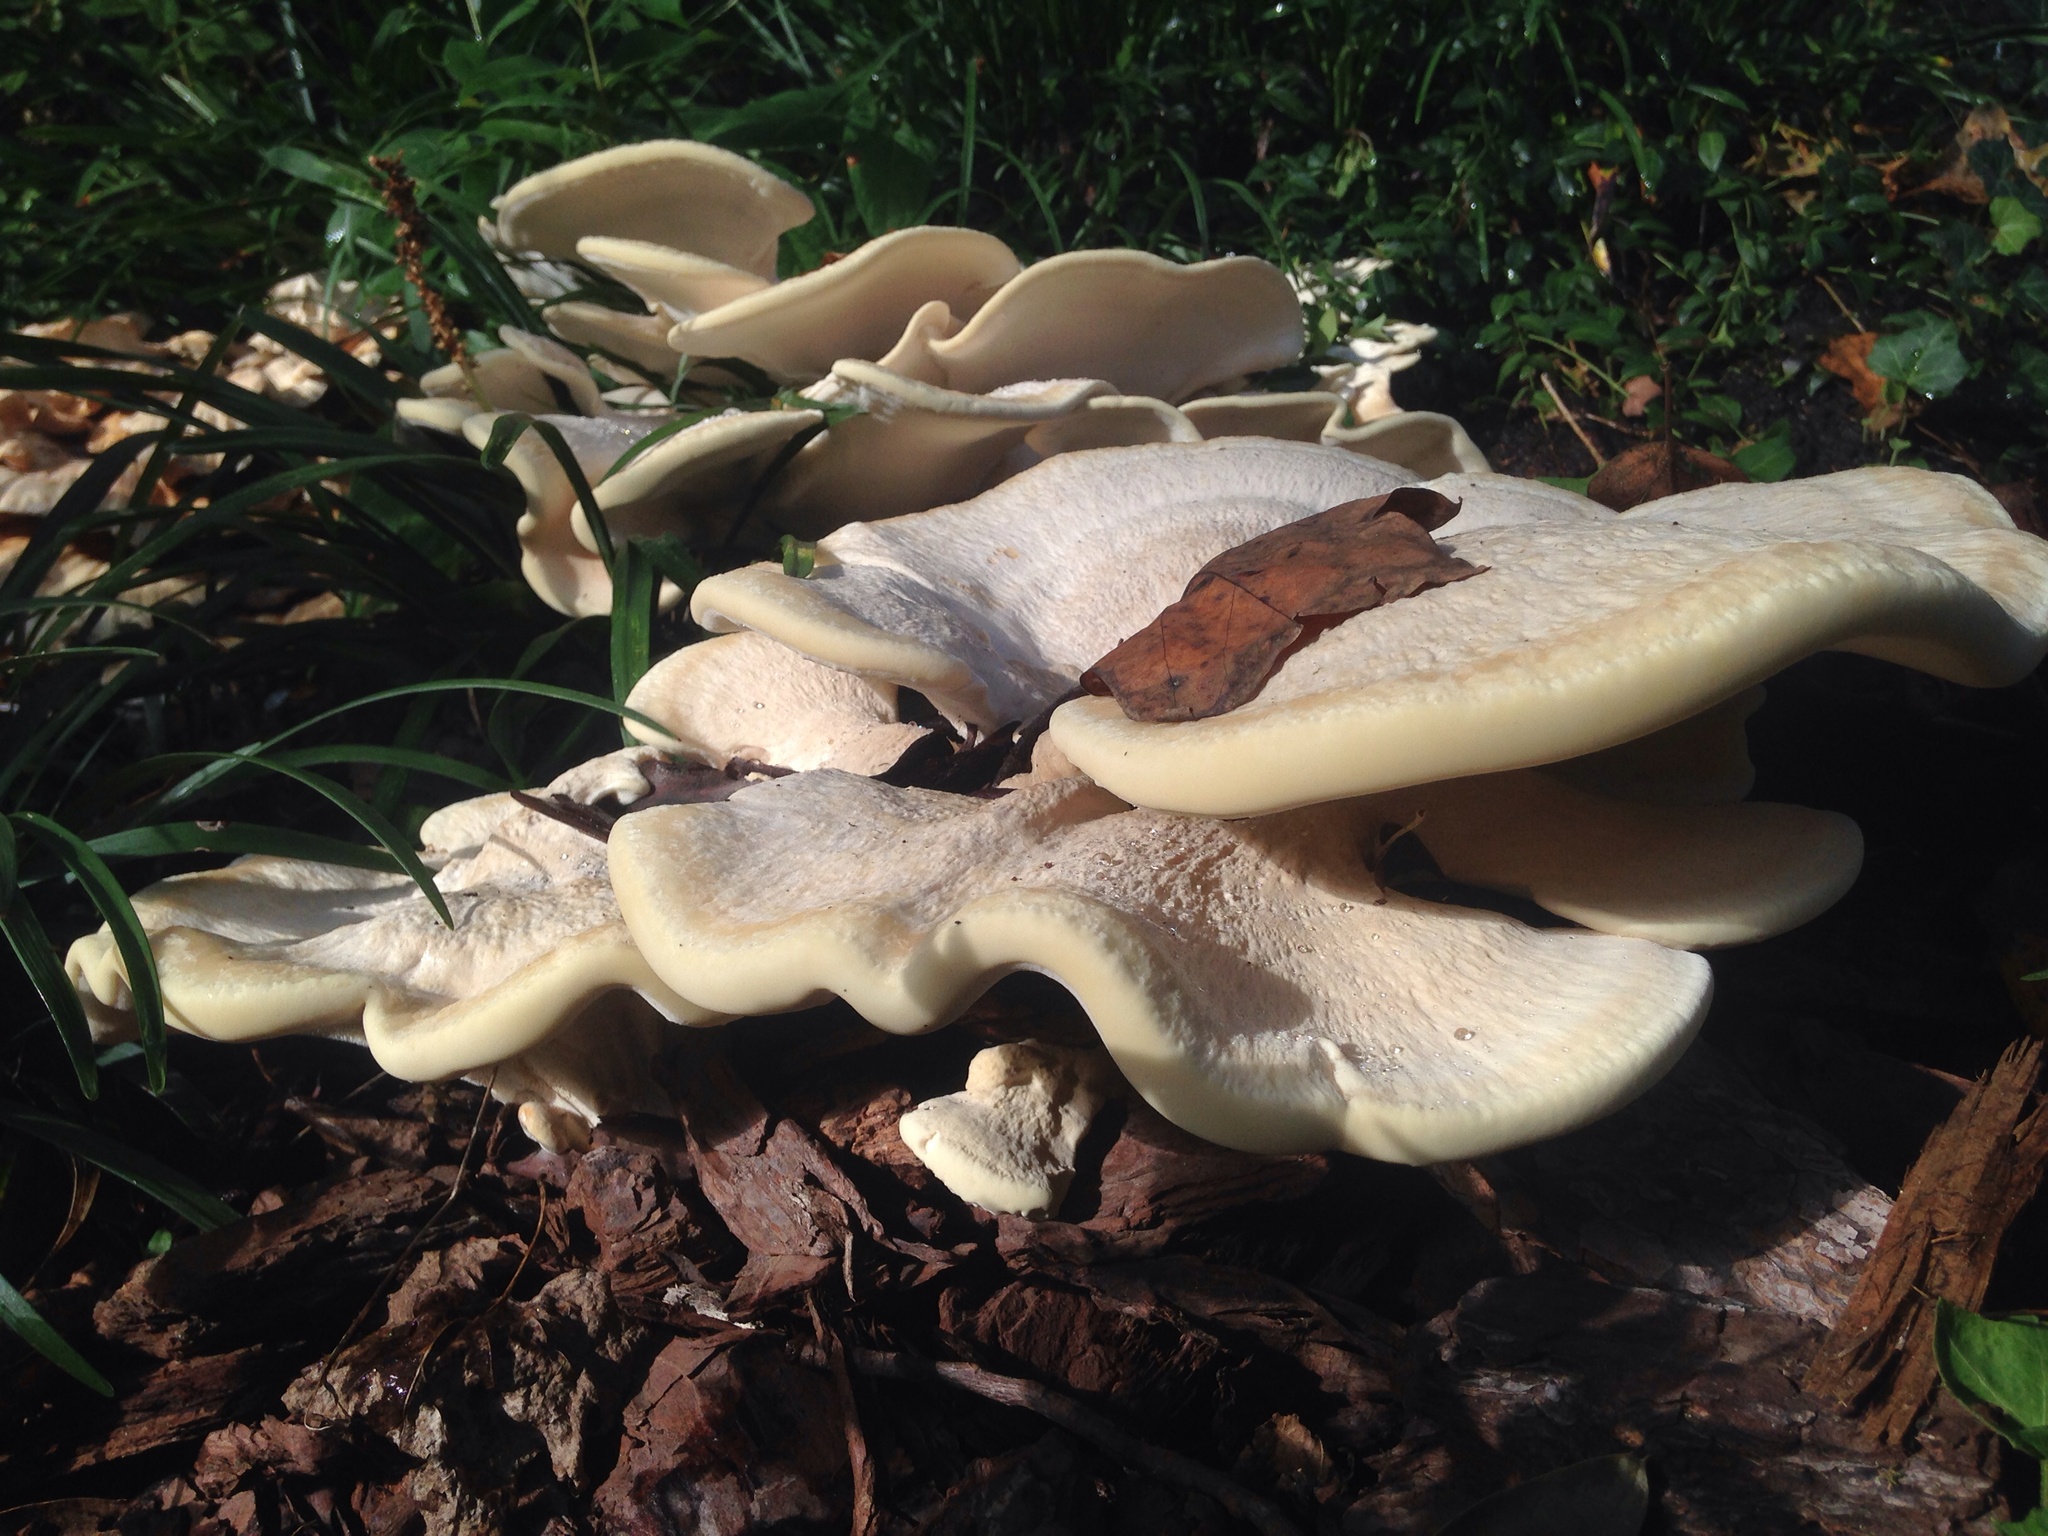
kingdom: Fungi
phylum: Basidiomycota
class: Agaricomycetes
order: Russulales
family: Bondarzewiaceae
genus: Bondarzewia
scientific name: Bondarzewia berkeleyi
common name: Berkeley's polypore
